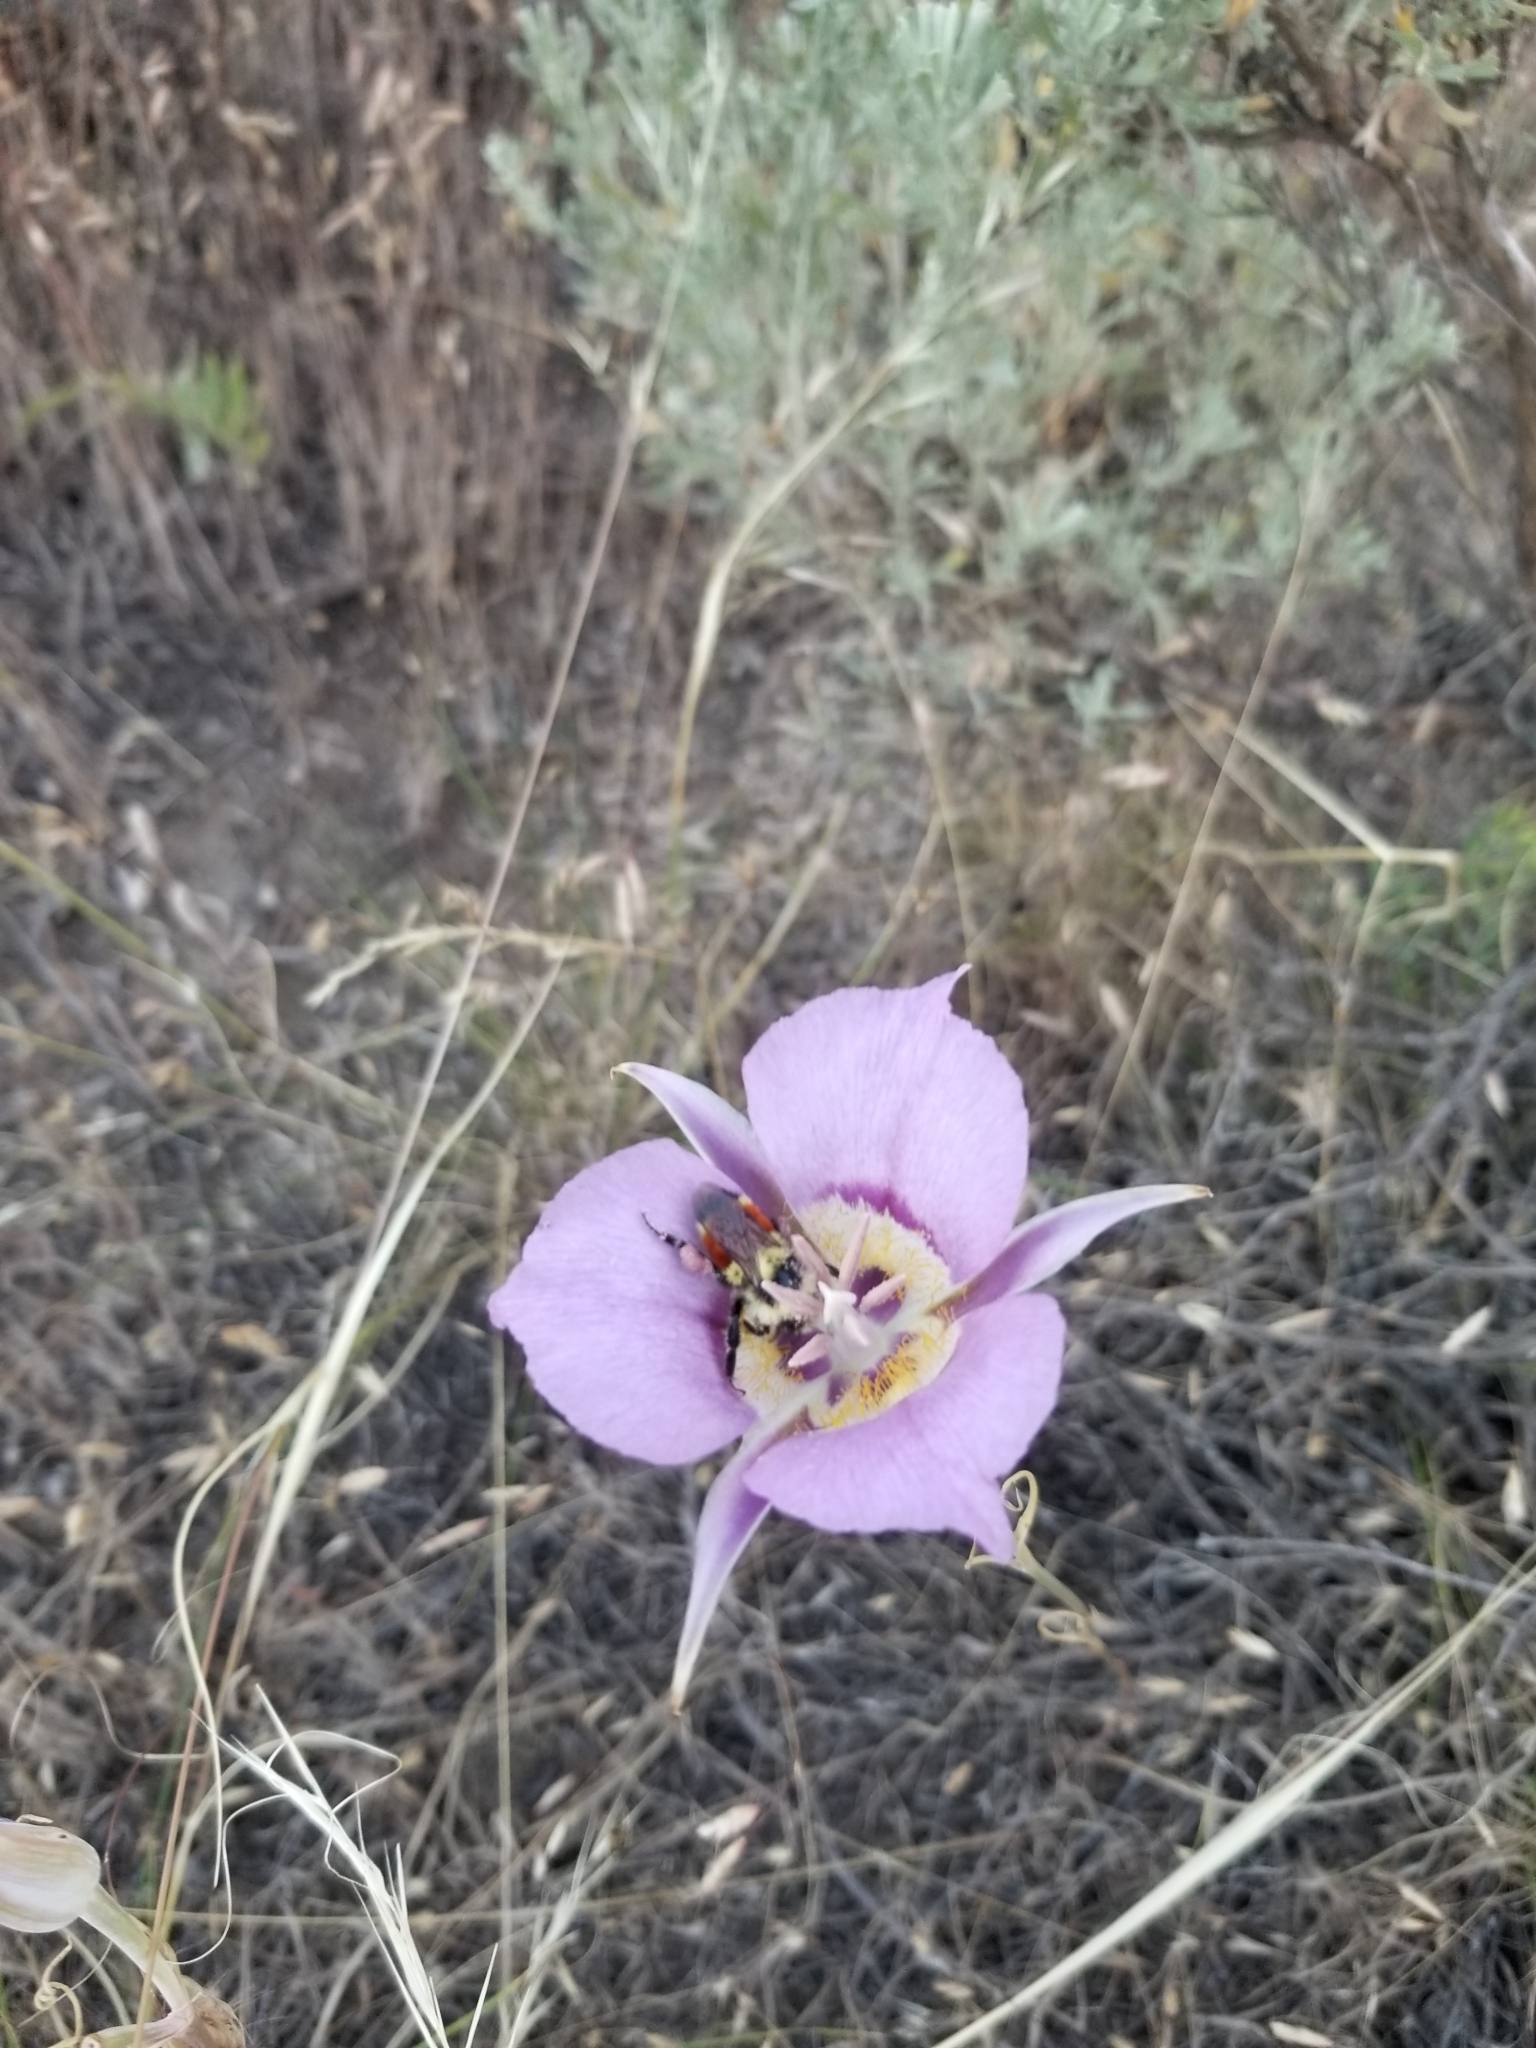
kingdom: Animalia
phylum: Arthropoda
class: Insecta
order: Hymenoptera
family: Apidae
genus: Bombus
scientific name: Bombus huntii
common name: Hunt bumble bee
